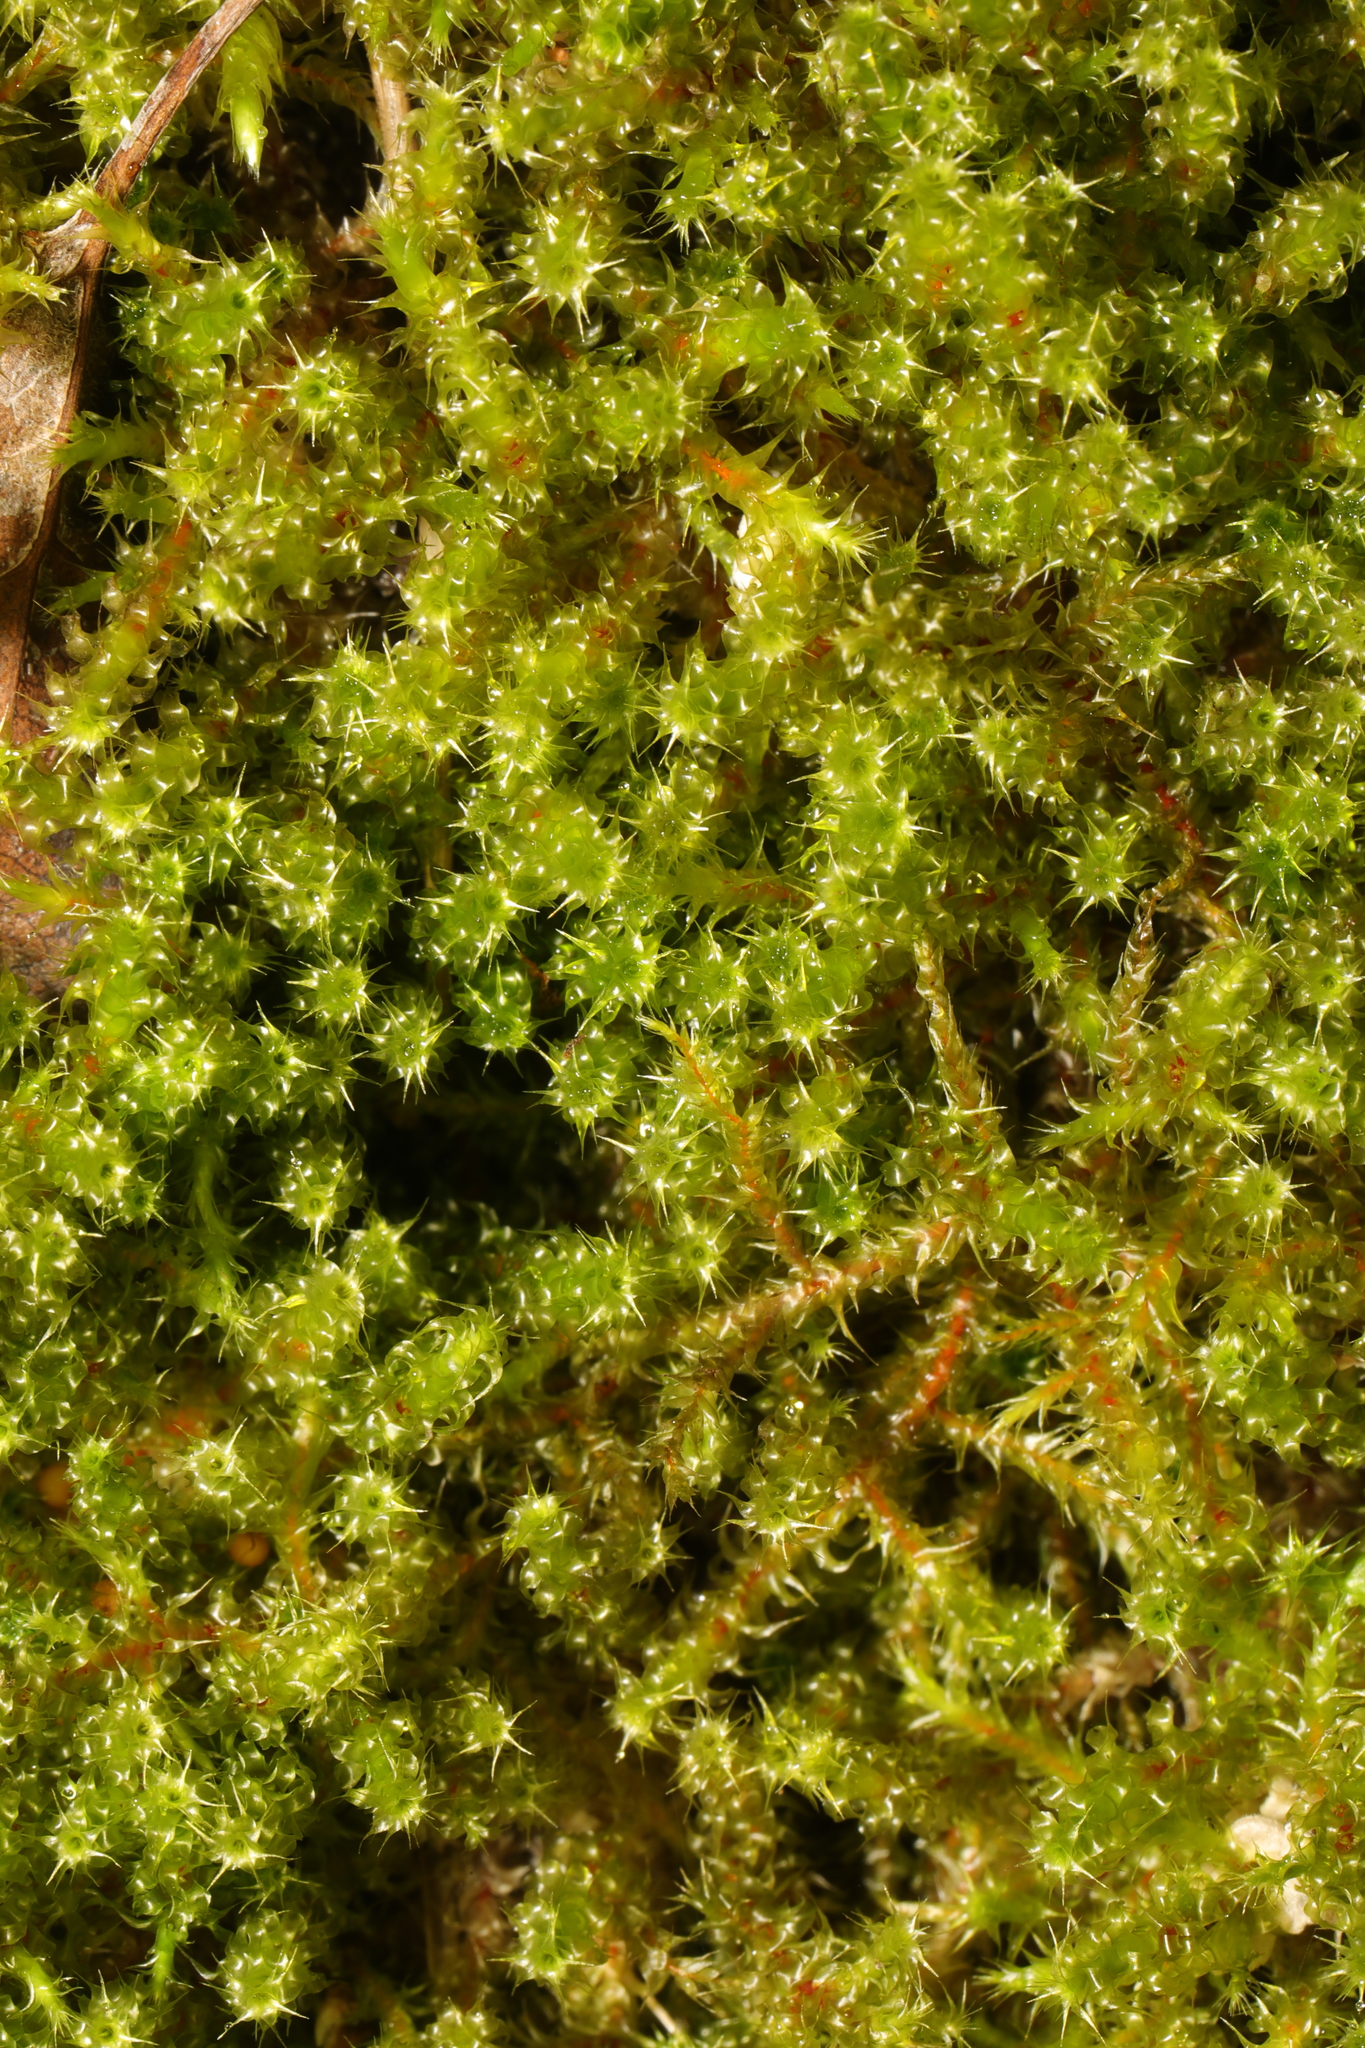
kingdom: Plantae
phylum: Bryophyta
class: Bryopsida
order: Hypnales
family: Hylocomiaceae
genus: Rhytidiadelphus
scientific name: Rhytidiadelphus squarrosus
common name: Springy turf-moss
